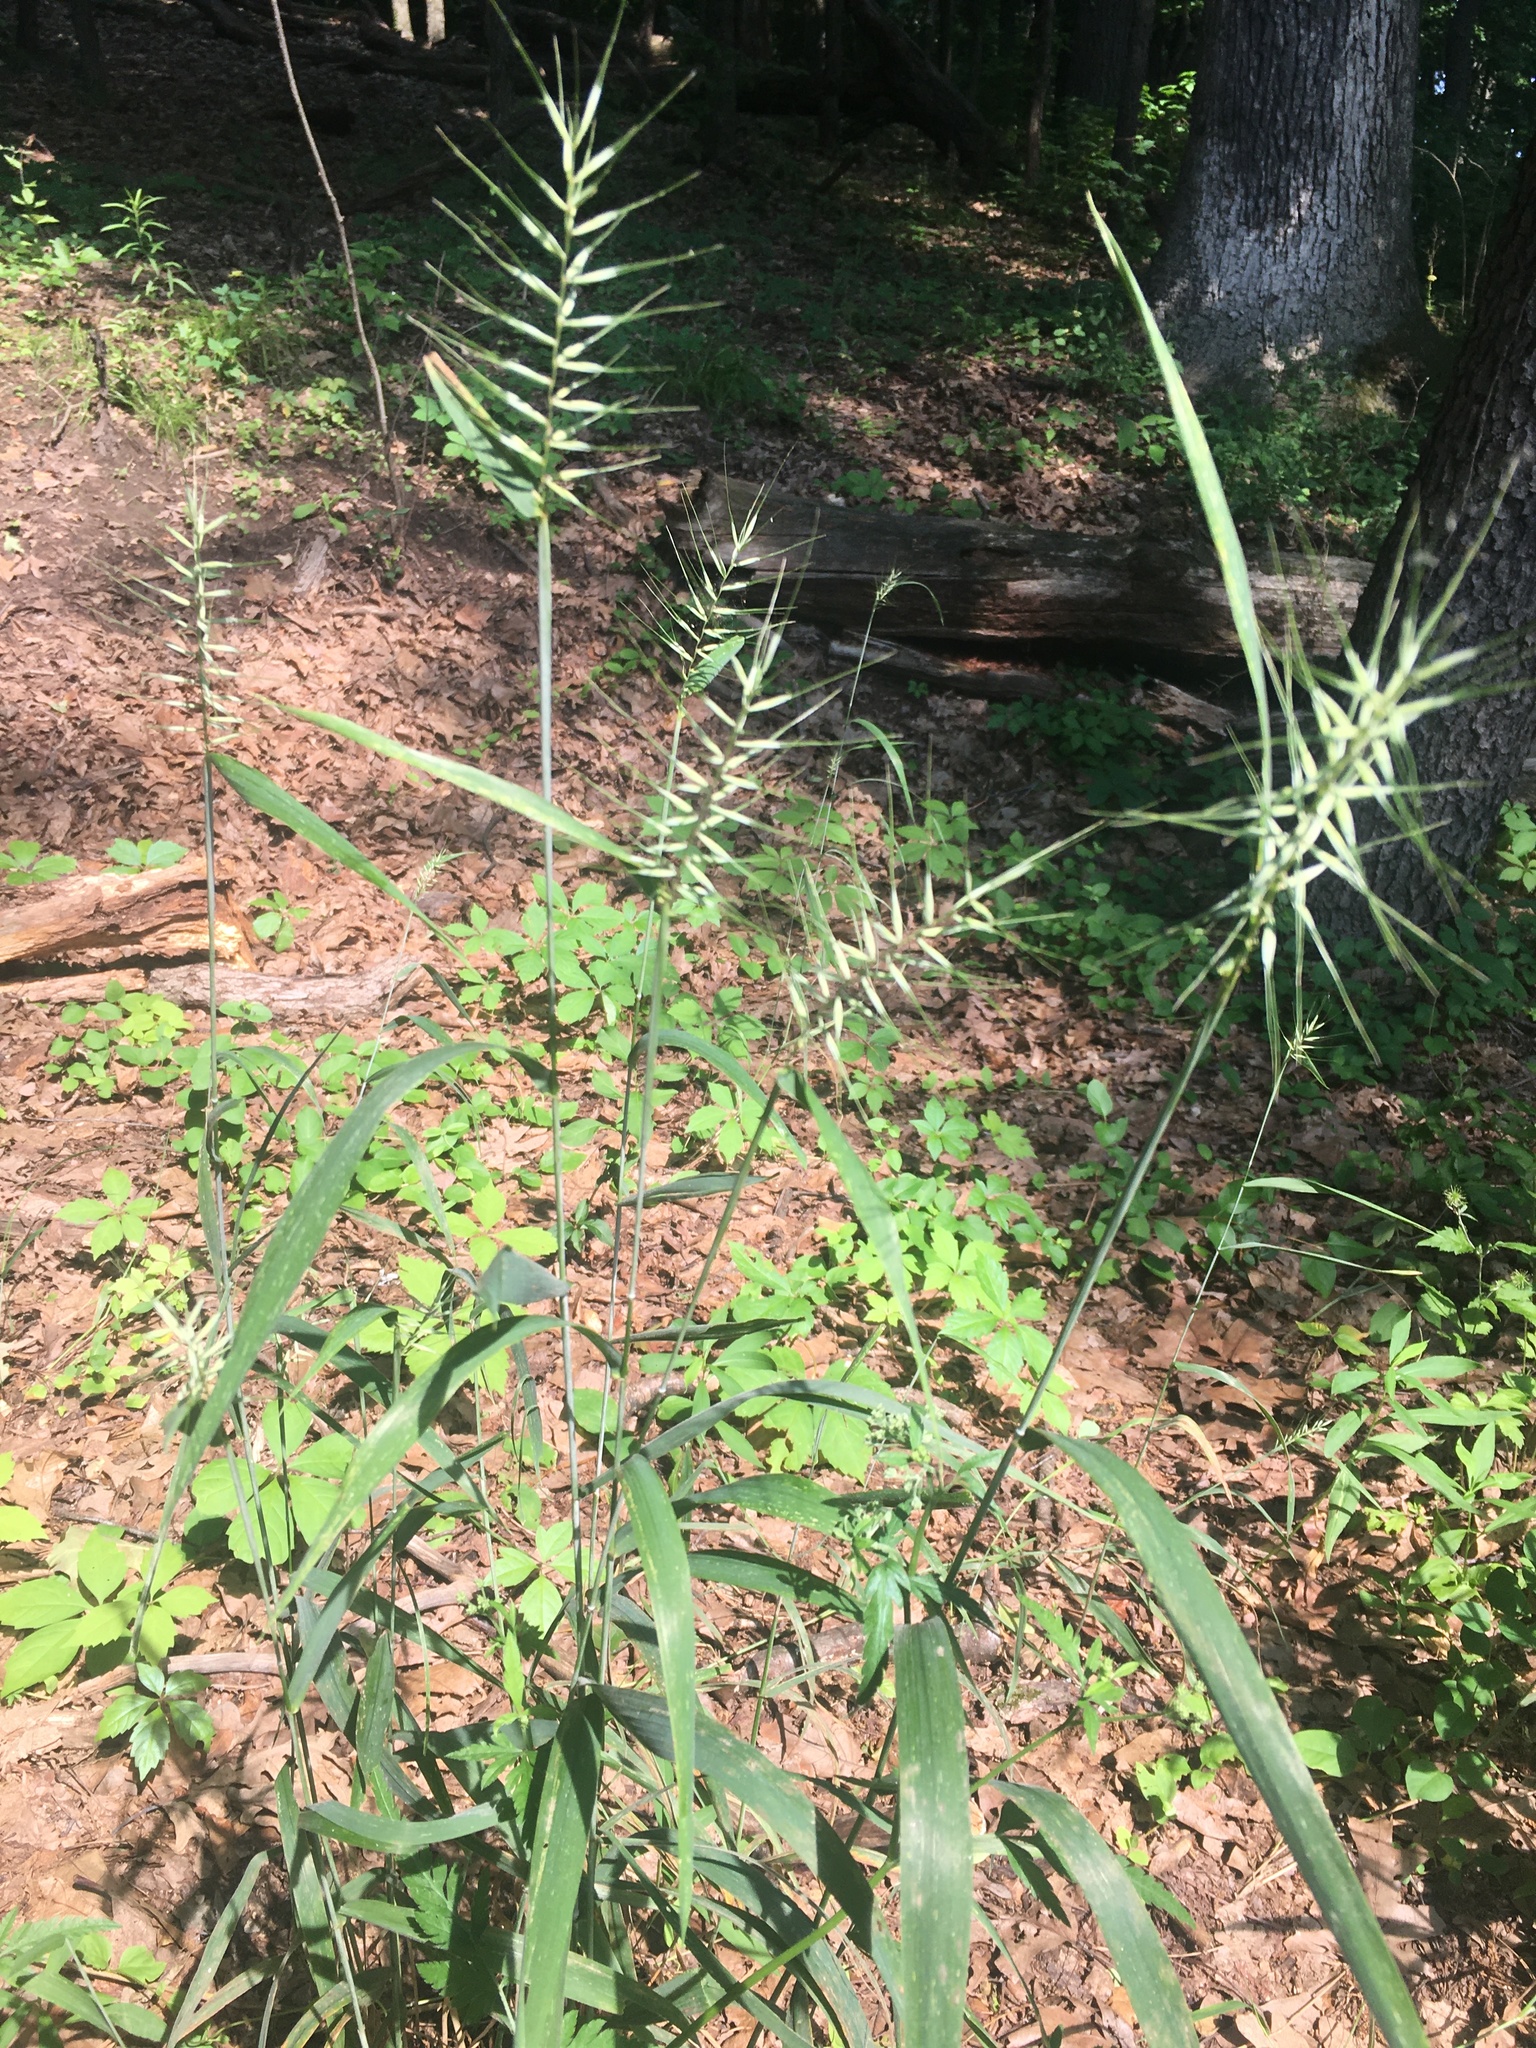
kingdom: Plantae
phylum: Tracheophyta
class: Liliopsida
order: Poales
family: Poaceae
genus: Elymus
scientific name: Elymus hystrix
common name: Bottlebrush grass
